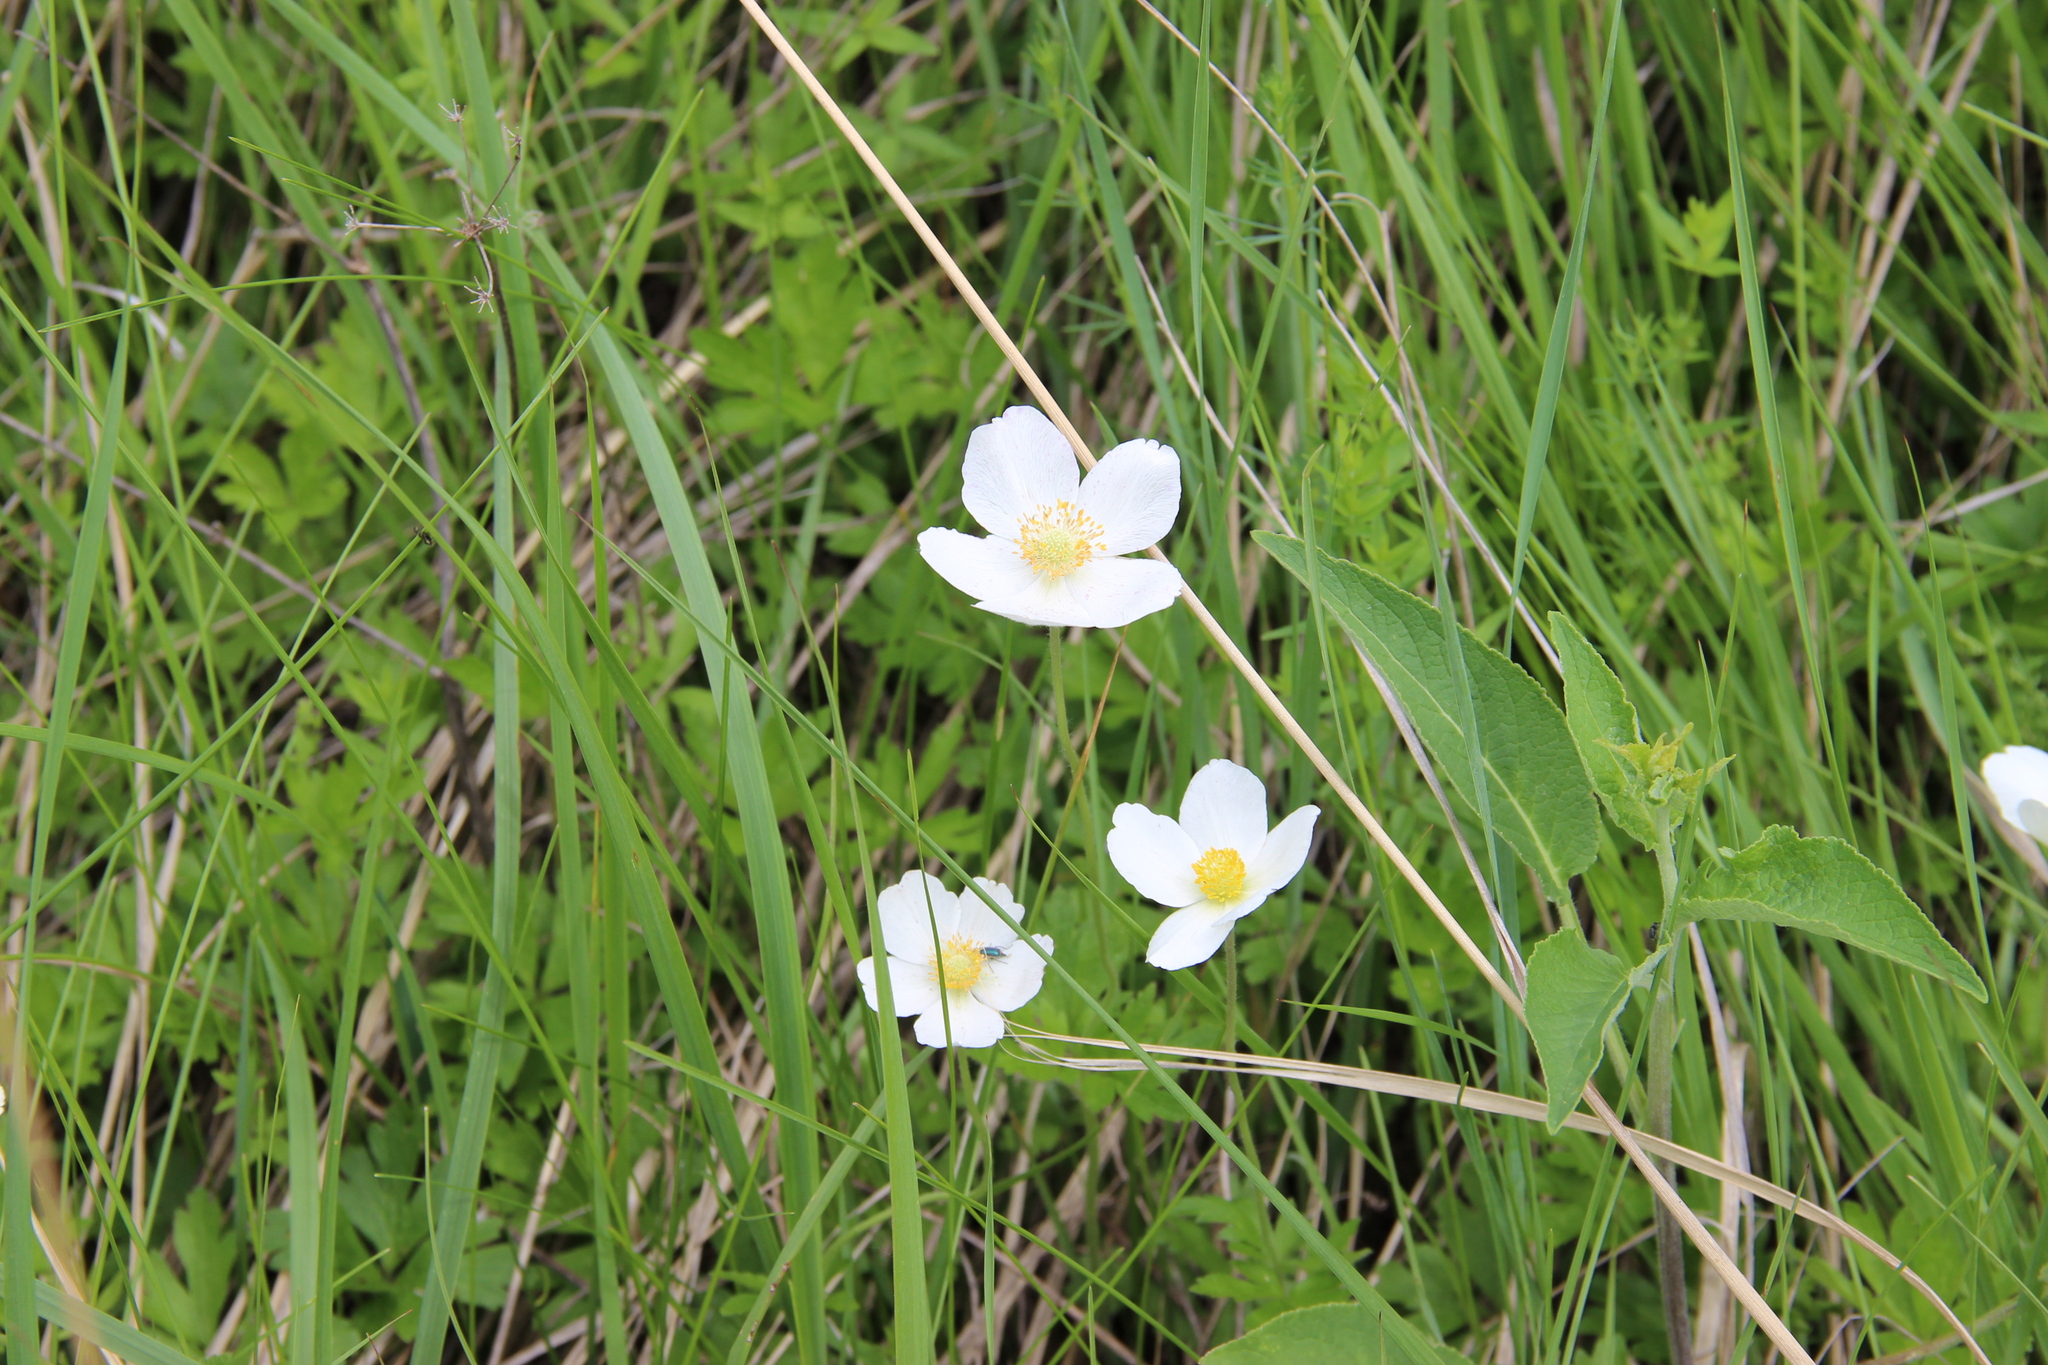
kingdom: Plantae
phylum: Tracheophyta
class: Magnoliopsida
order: Ranunculales
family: Ranunculaceae
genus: Anemone
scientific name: Anemone sylvestris
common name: Snowdrop anemone
